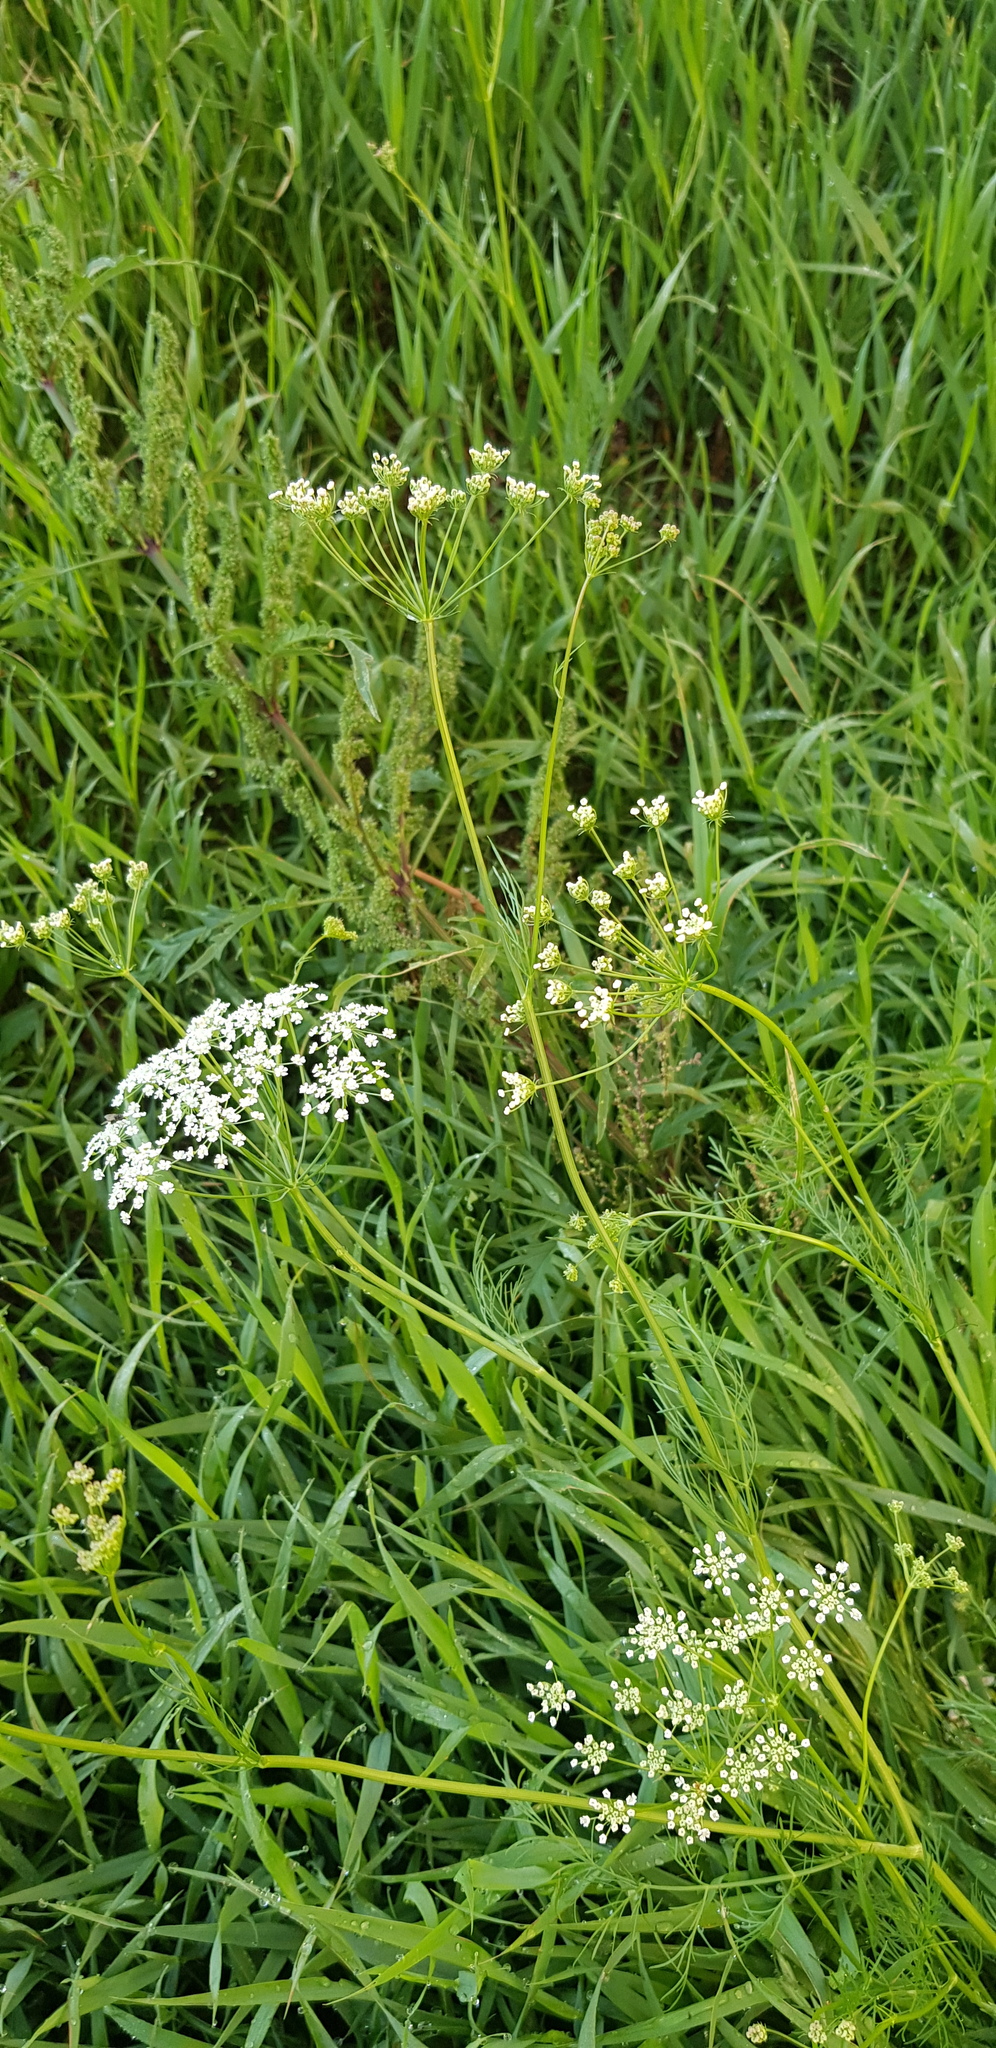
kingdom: Plantae
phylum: Tracheophyta
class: Magnoliopsida
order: Apiales
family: Apiaceae
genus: Carum
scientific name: Carum buriaticum
